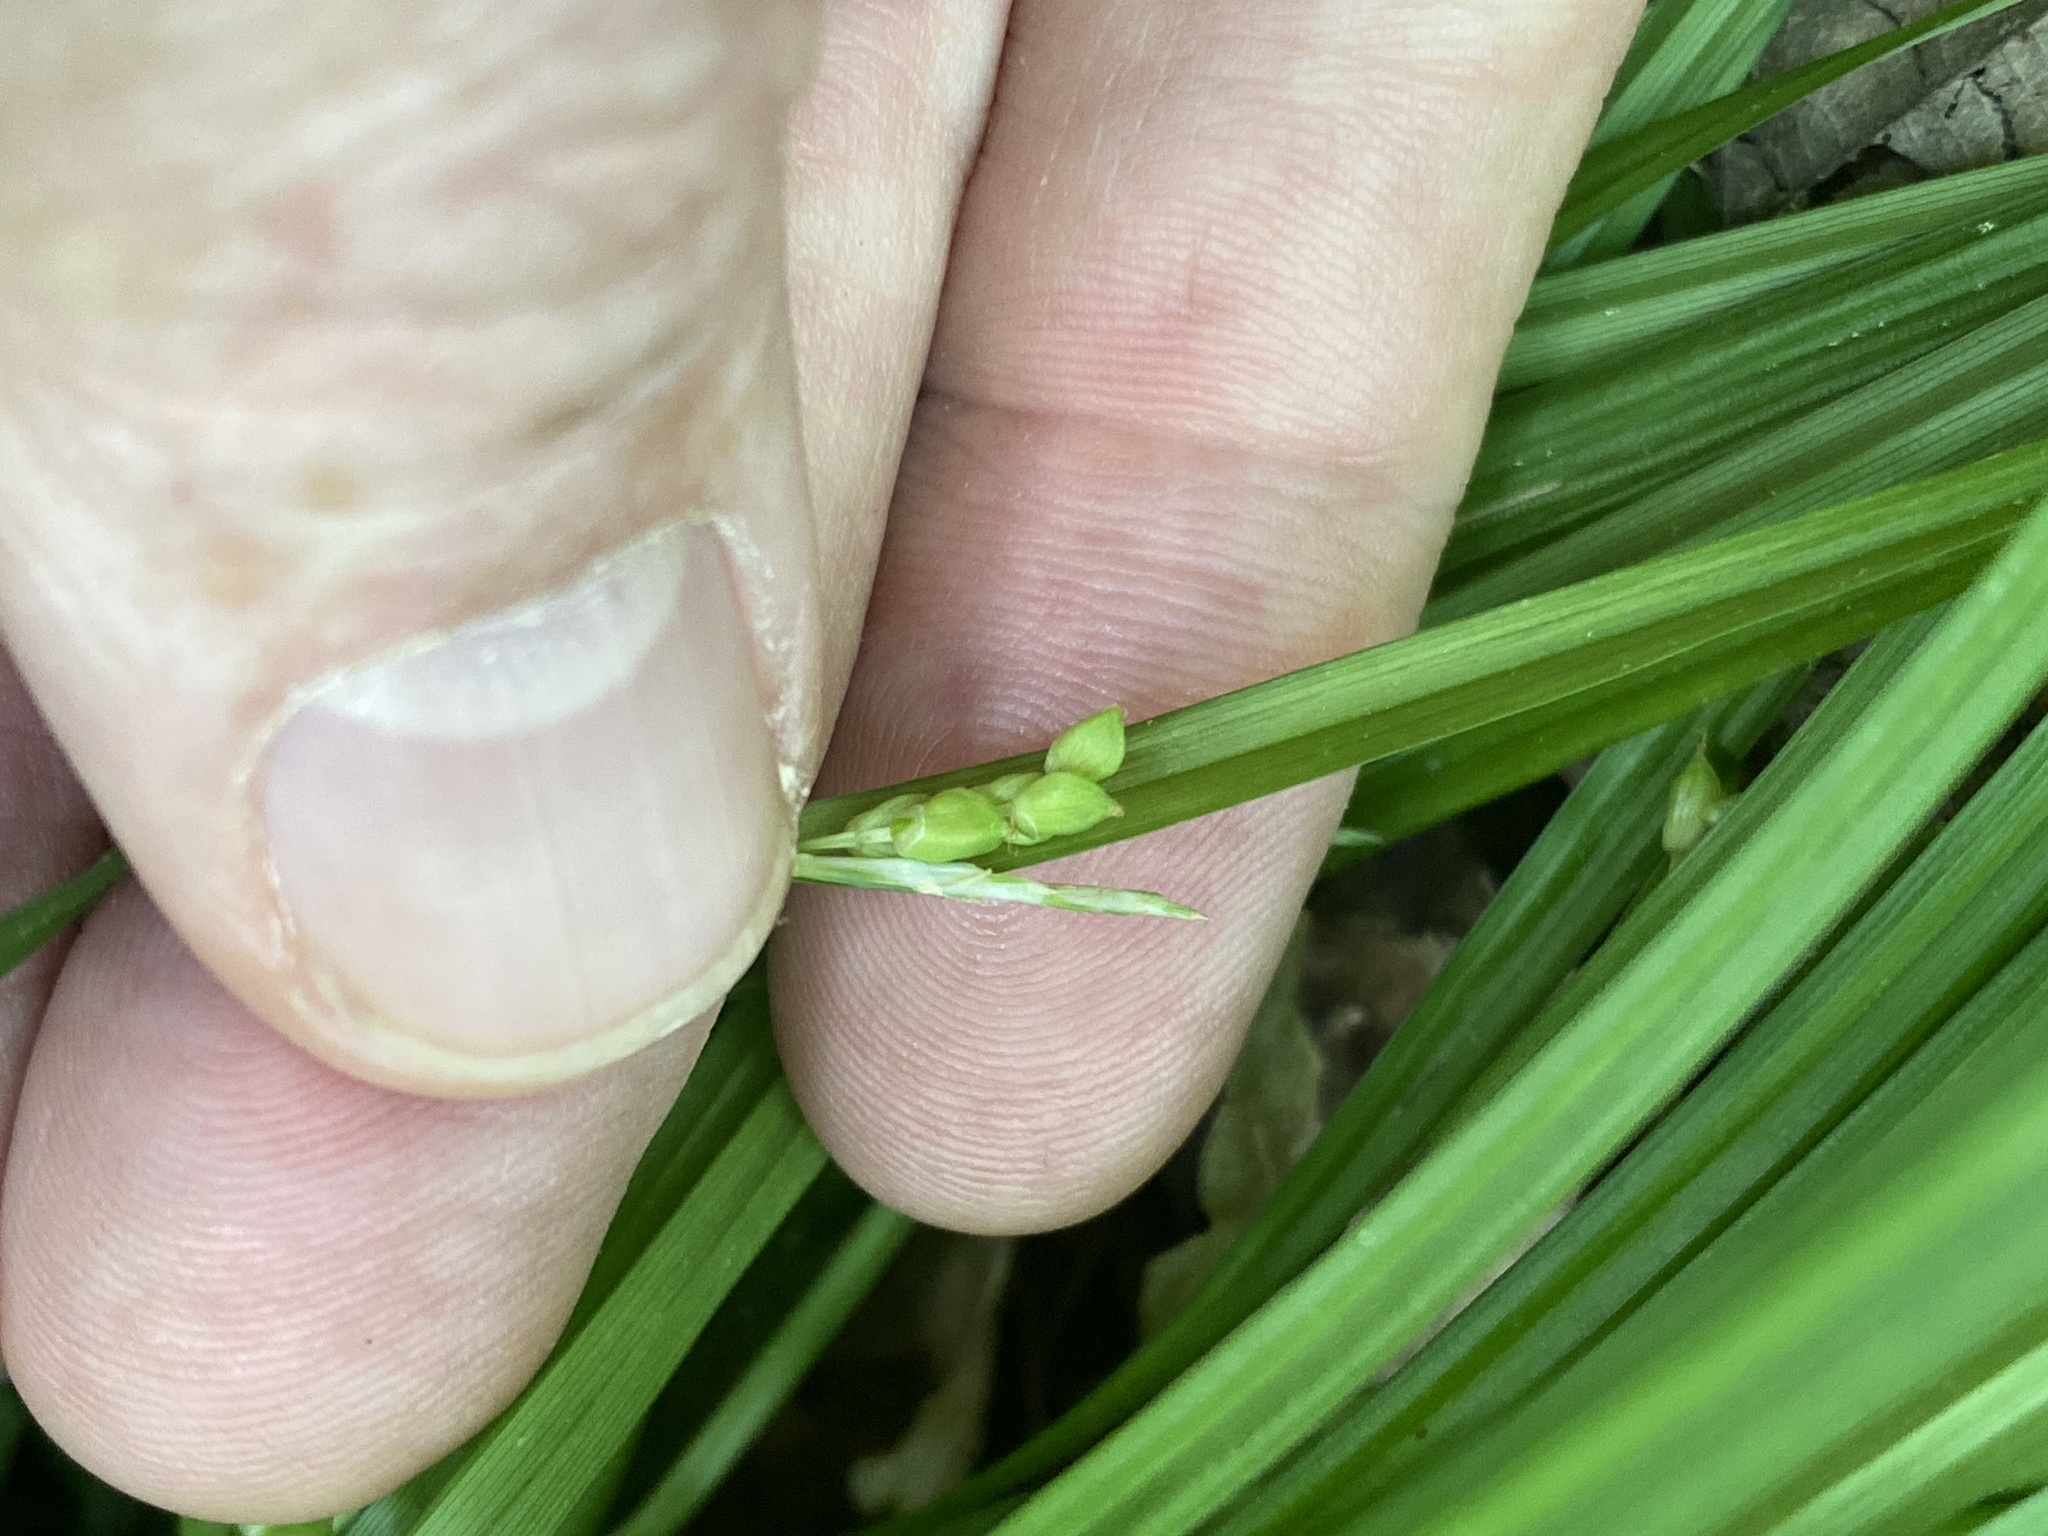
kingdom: Plantae
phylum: Tracheophyta
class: Liliopsida
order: Poales
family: Cyperaceae
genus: Carex
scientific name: Carex cumberlandensis
